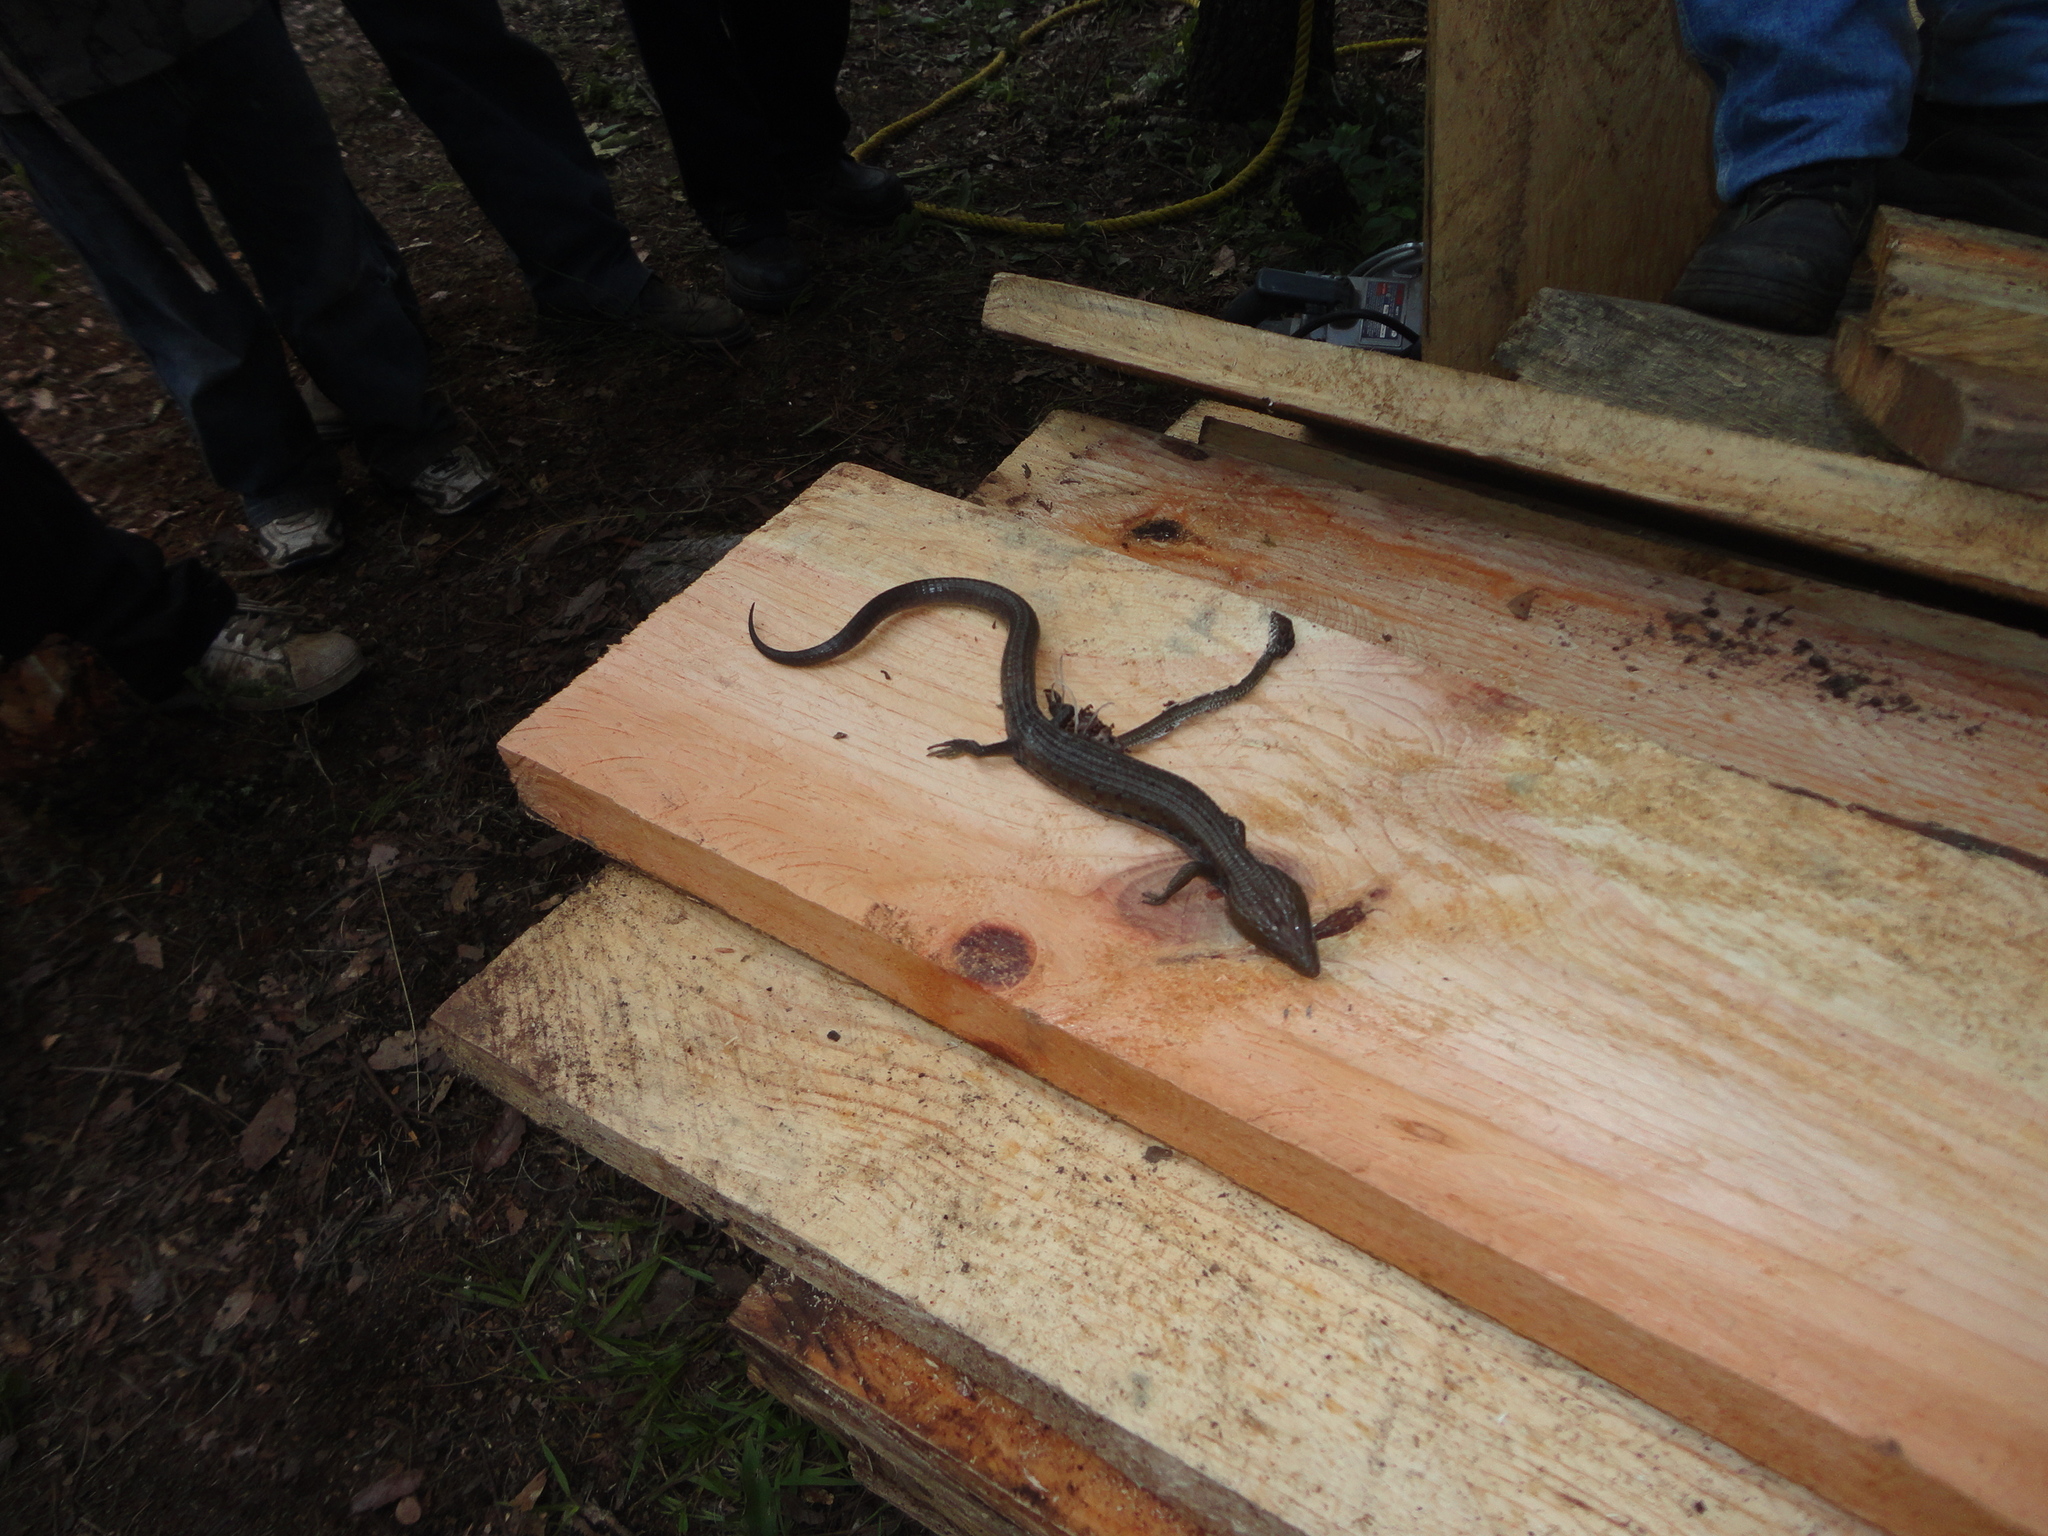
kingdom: Animalia
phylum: Chordata
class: Squamata
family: Anguidae
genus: Gerrhonotus
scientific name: Gerrhonotus liocephalus
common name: Texas alligator lizard
